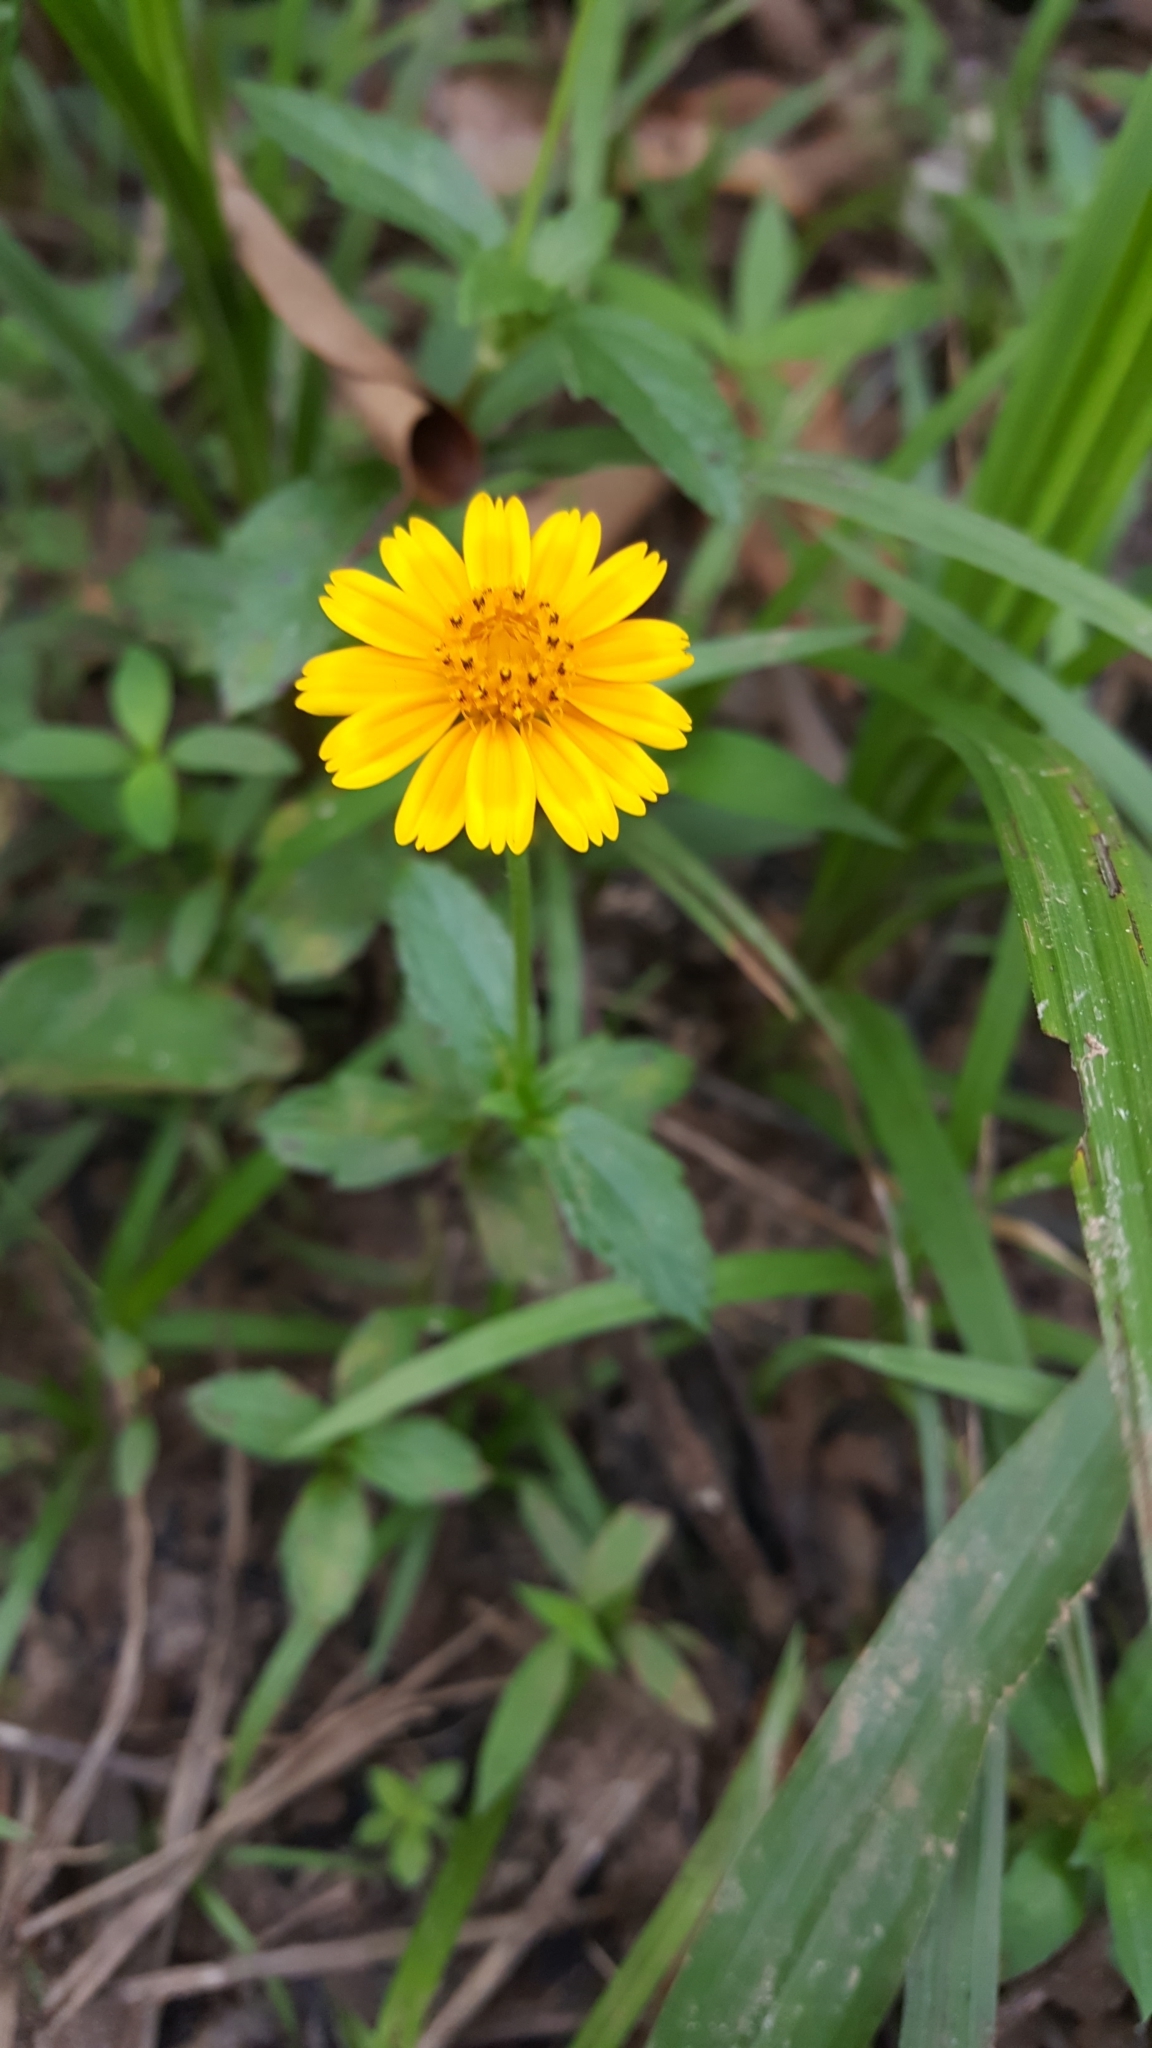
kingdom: Plantae
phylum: Tracheophyta
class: Magnoliopsida
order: Asterales
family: Asteraceae
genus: Sphagneticola
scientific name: Sphagneticola trilobata
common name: Bay biscayne creeping-oxeye
